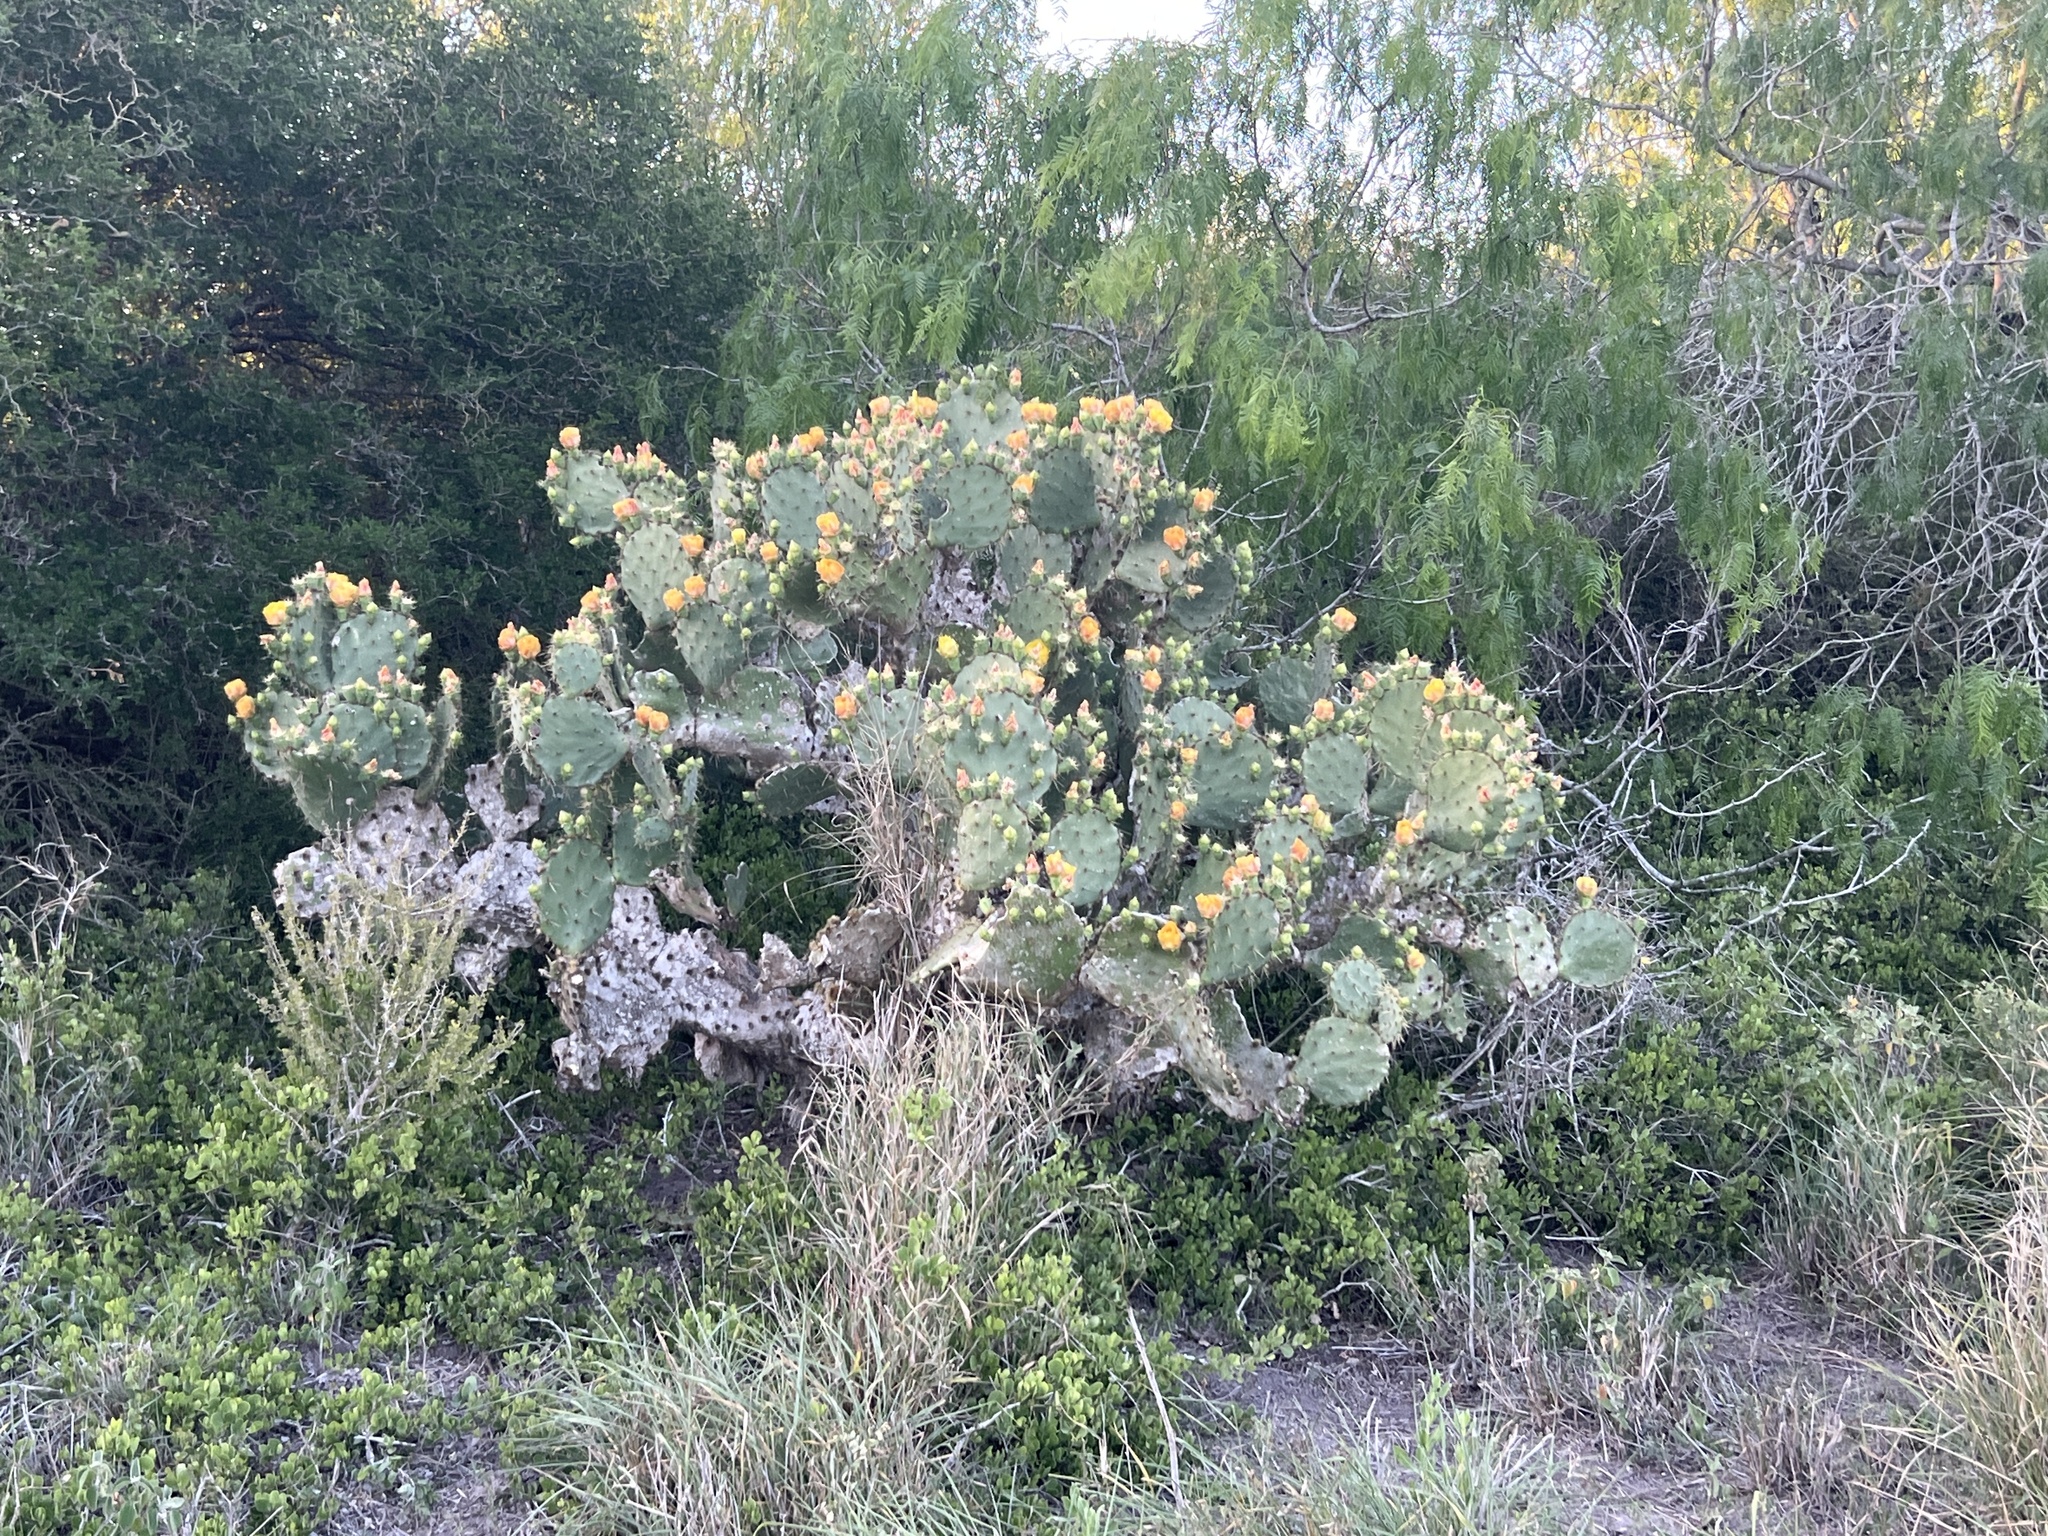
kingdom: Plantae
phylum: Tracheophyta
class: Magnoliopsida
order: Caryophyllales
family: Cactaceae
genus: Opuntia
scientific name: Opuntia alta
